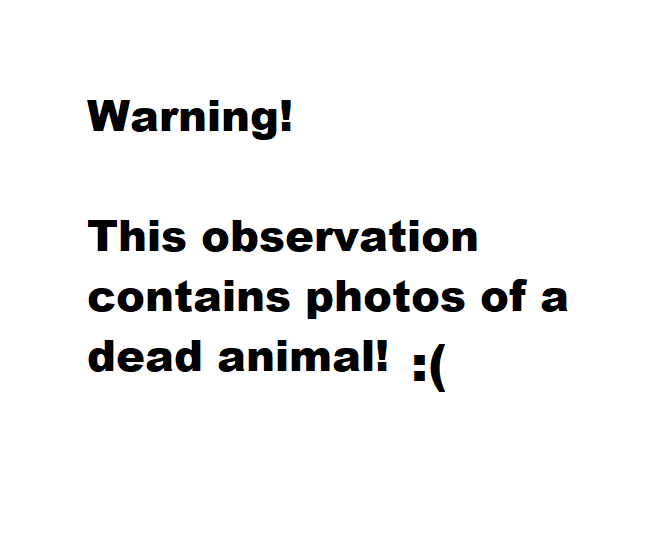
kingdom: Animalia
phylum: Chordata
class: Aves
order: Passeriformes
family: Troglodytidae
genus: Thryothorus
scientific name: Thryothorus ludovicianus
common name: Carolina wren
